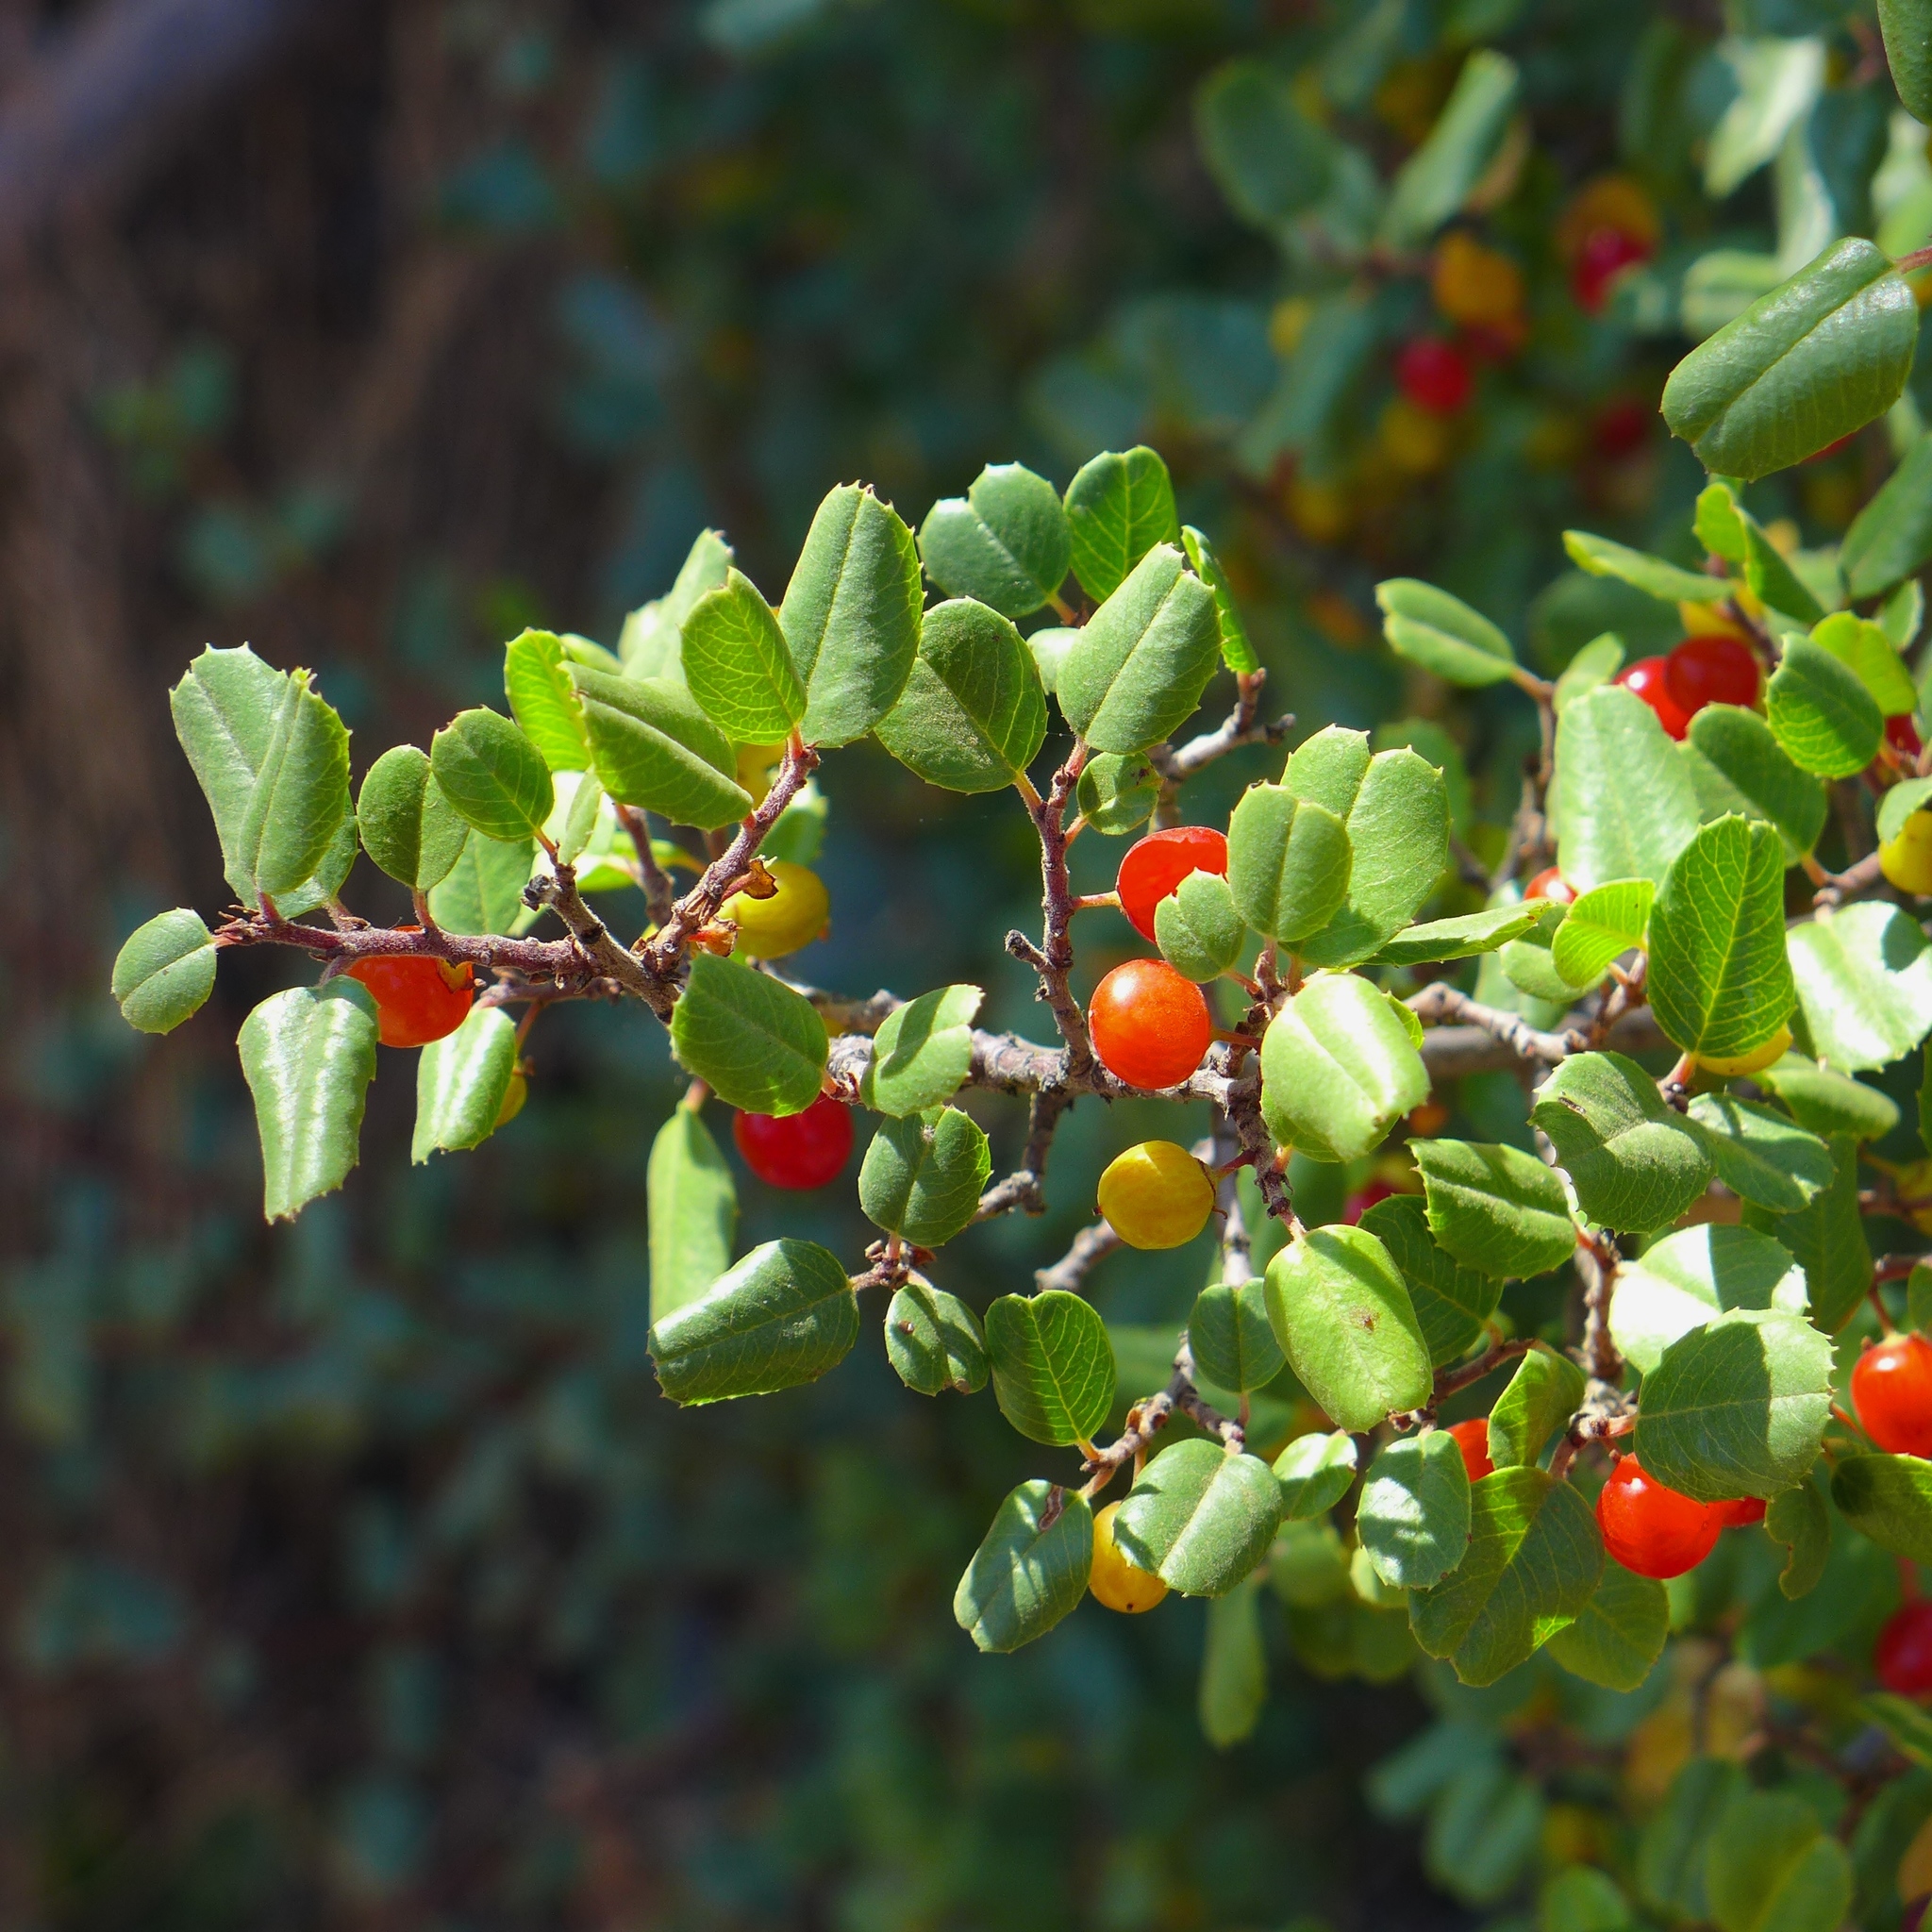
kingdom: Plantae
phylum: Tracheophyta
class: Magnoliopsida
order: Rosales
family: Rhamnaceae
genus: Endotropis
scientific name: Endotropis crocea
